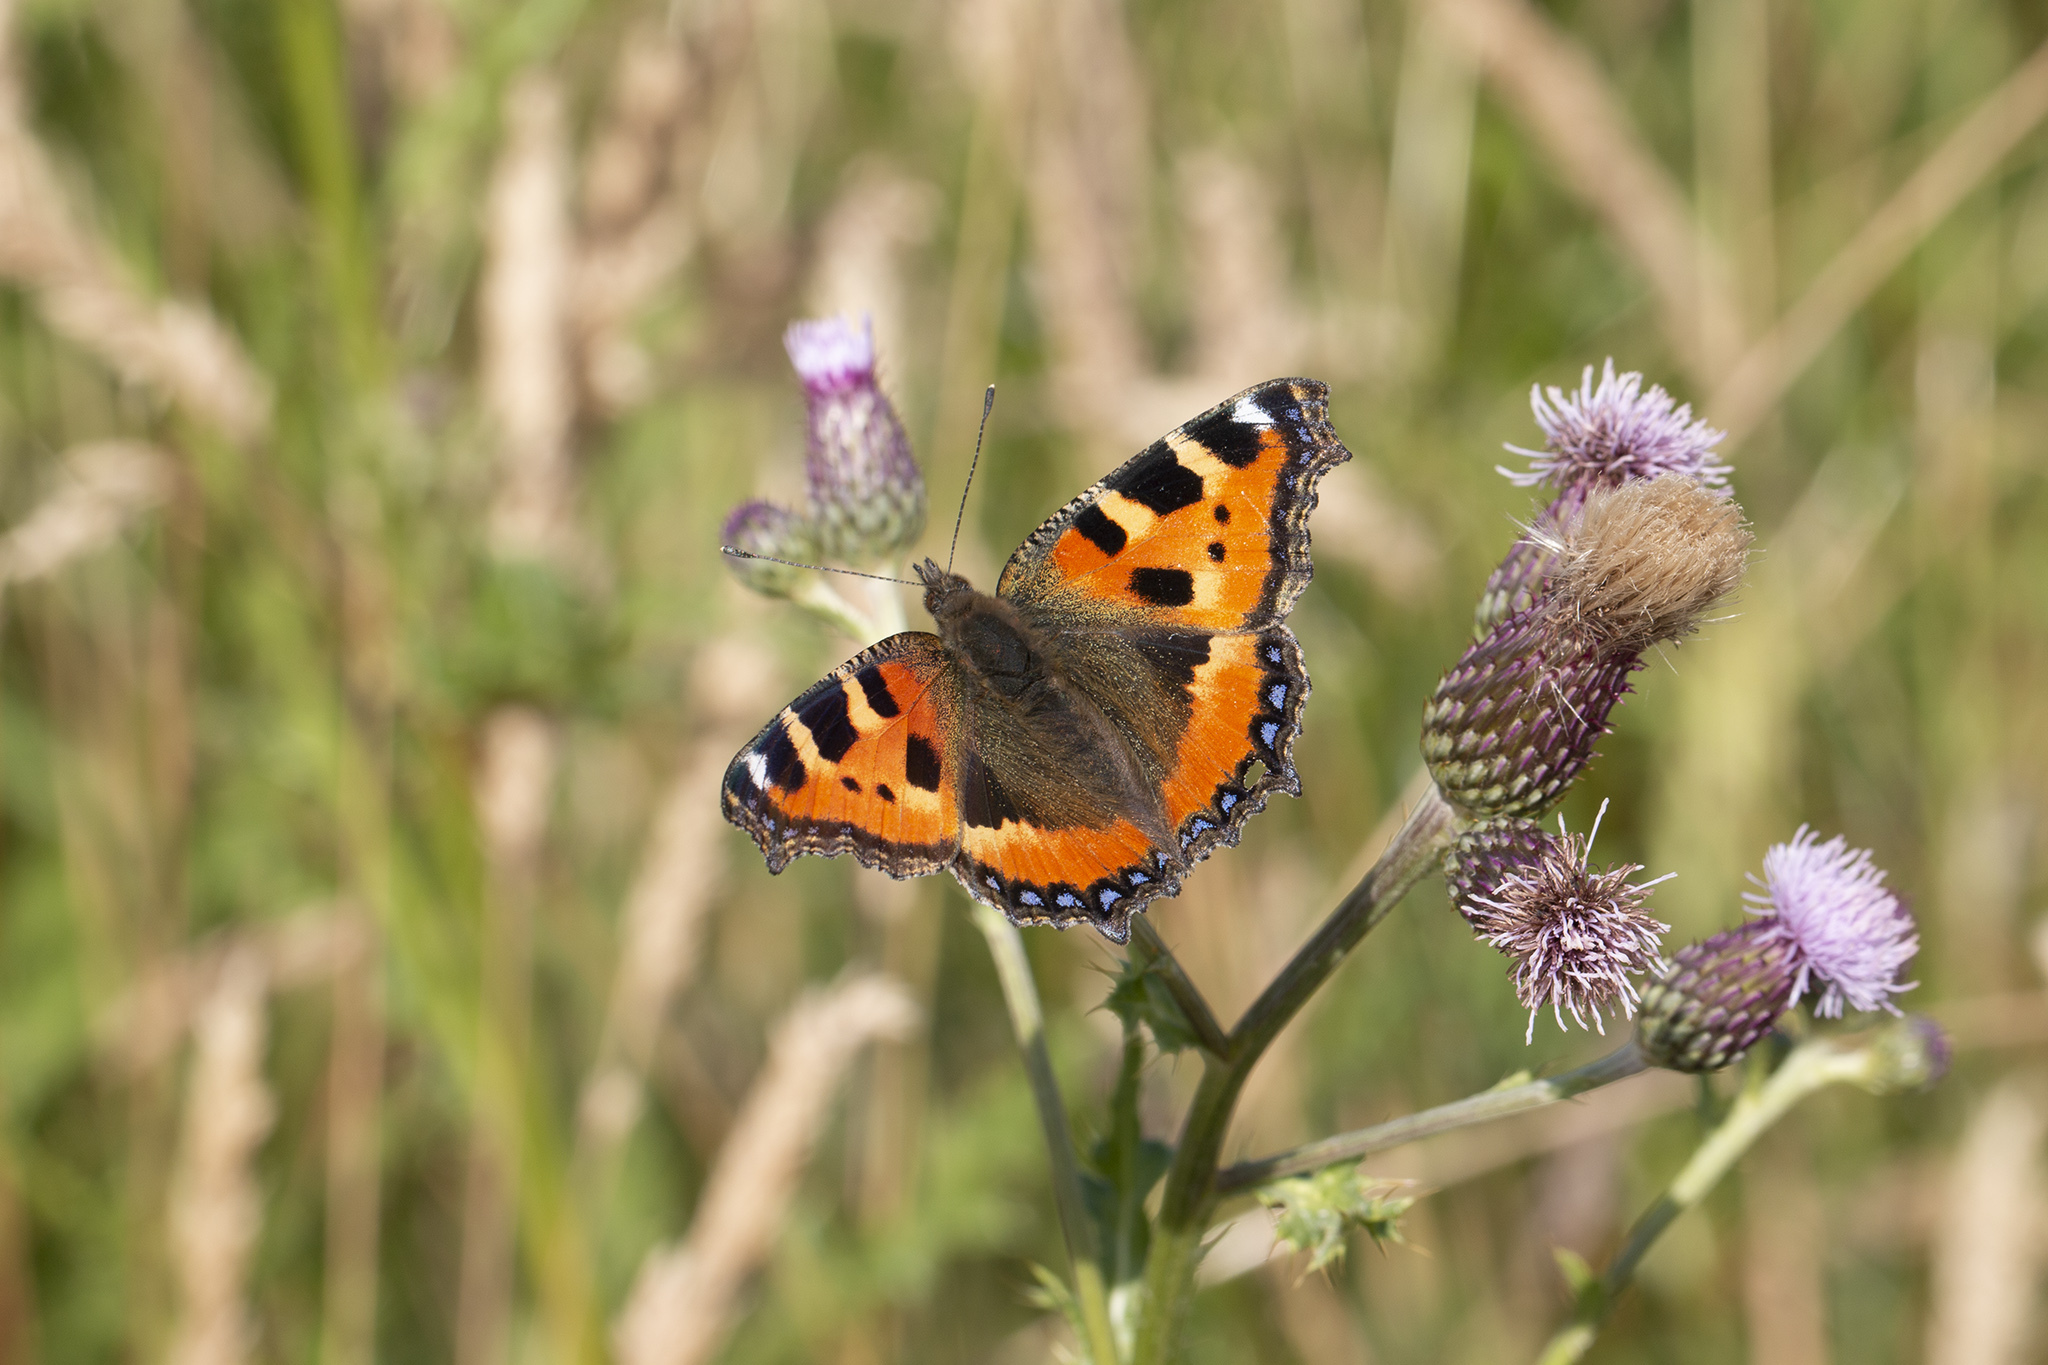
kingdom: Animalia
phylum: Arthropoda
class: Insecta
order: Lepidoptera
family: Nymphalidae
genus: Aglais
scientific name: Aglais urticae
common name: Small tortoiseshell
